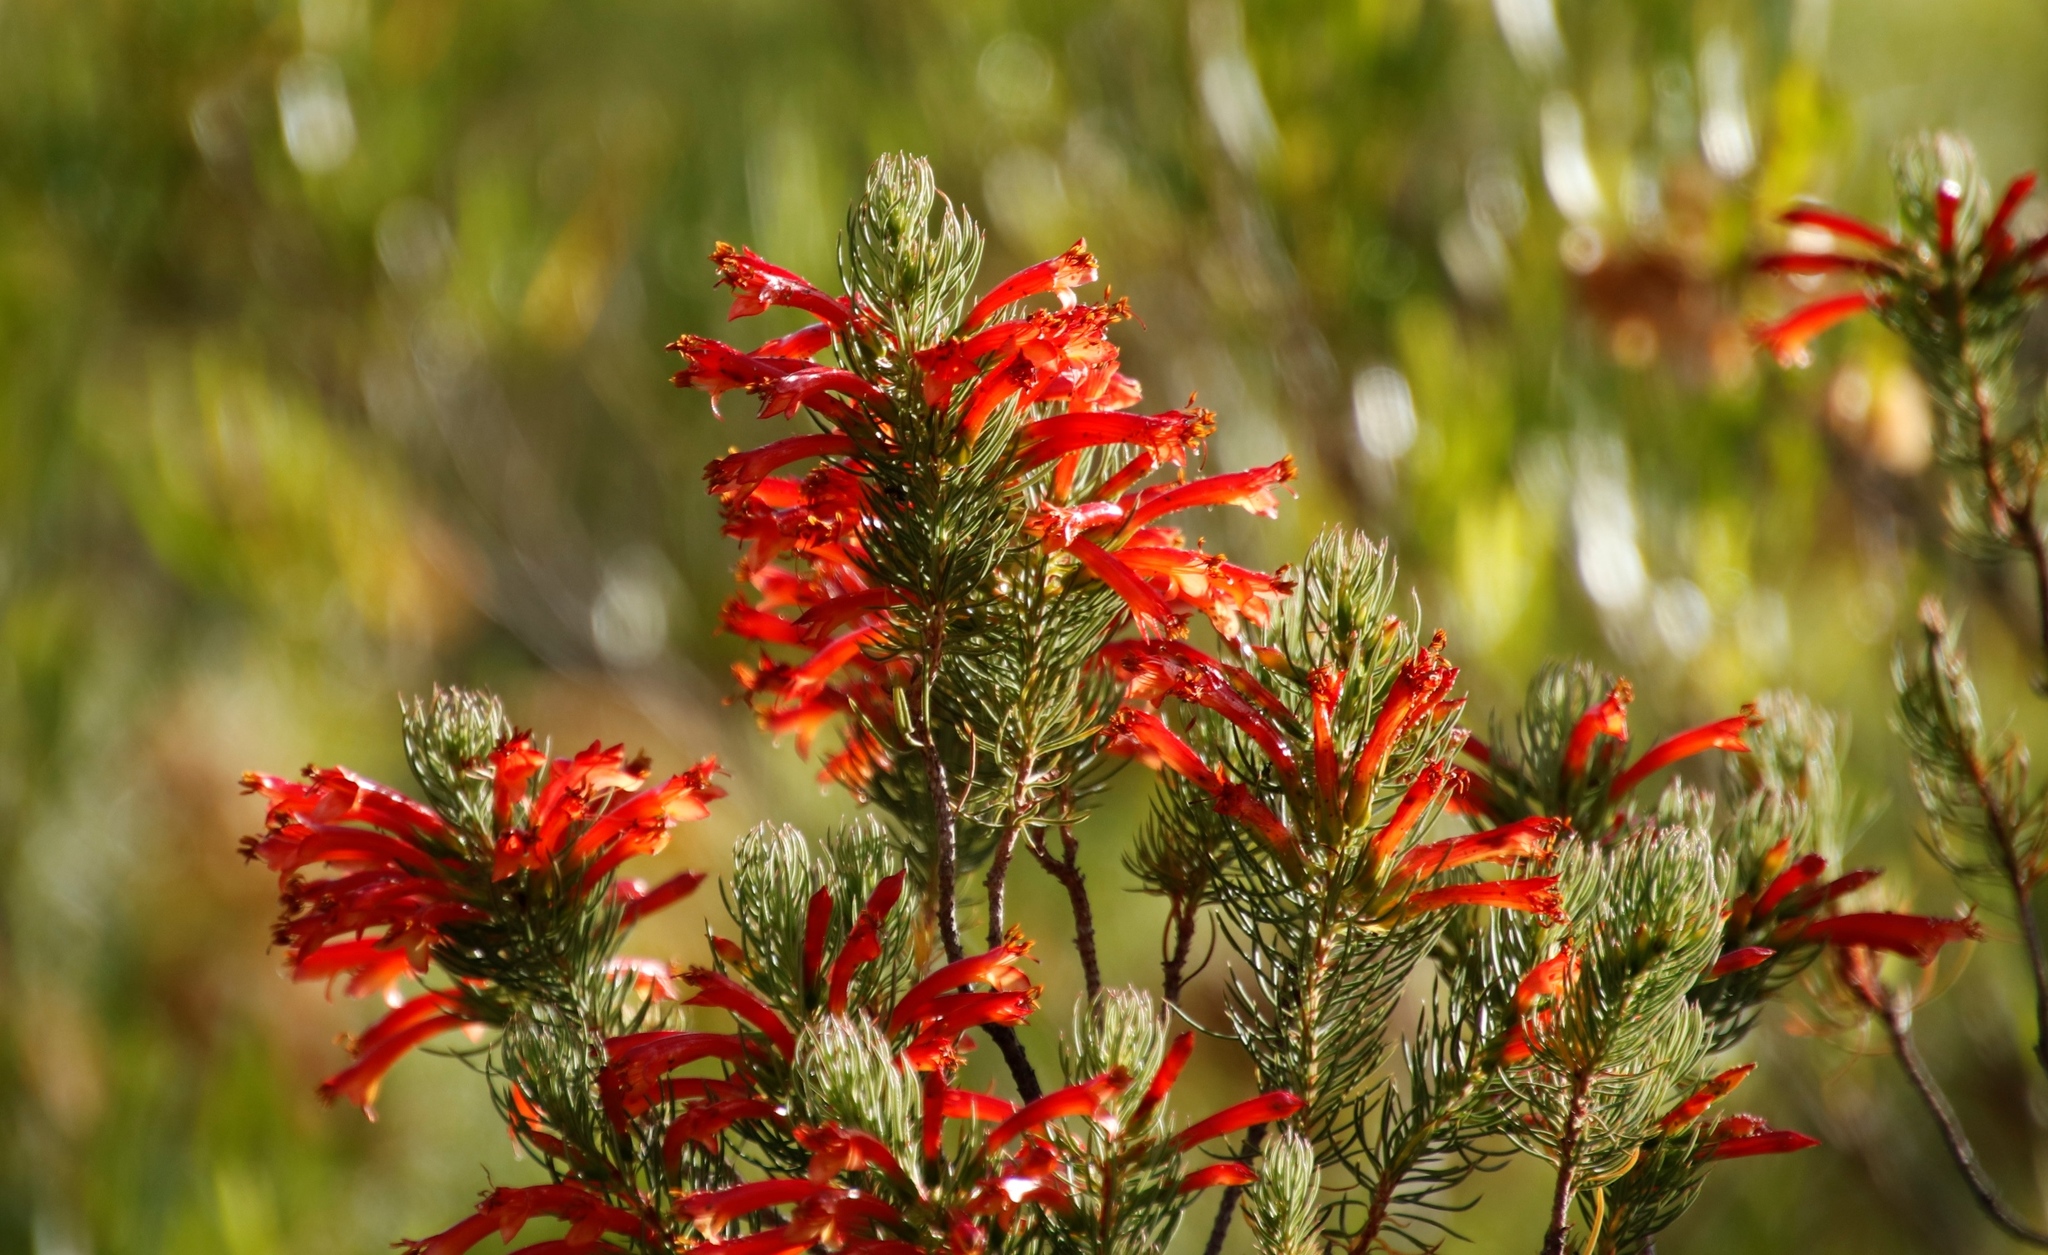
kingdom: Plantae
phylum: Tracheophyta
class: Magnoliopsida
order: Ericales
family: Ericaceae
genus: Erica
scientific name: Erica grandiflora
